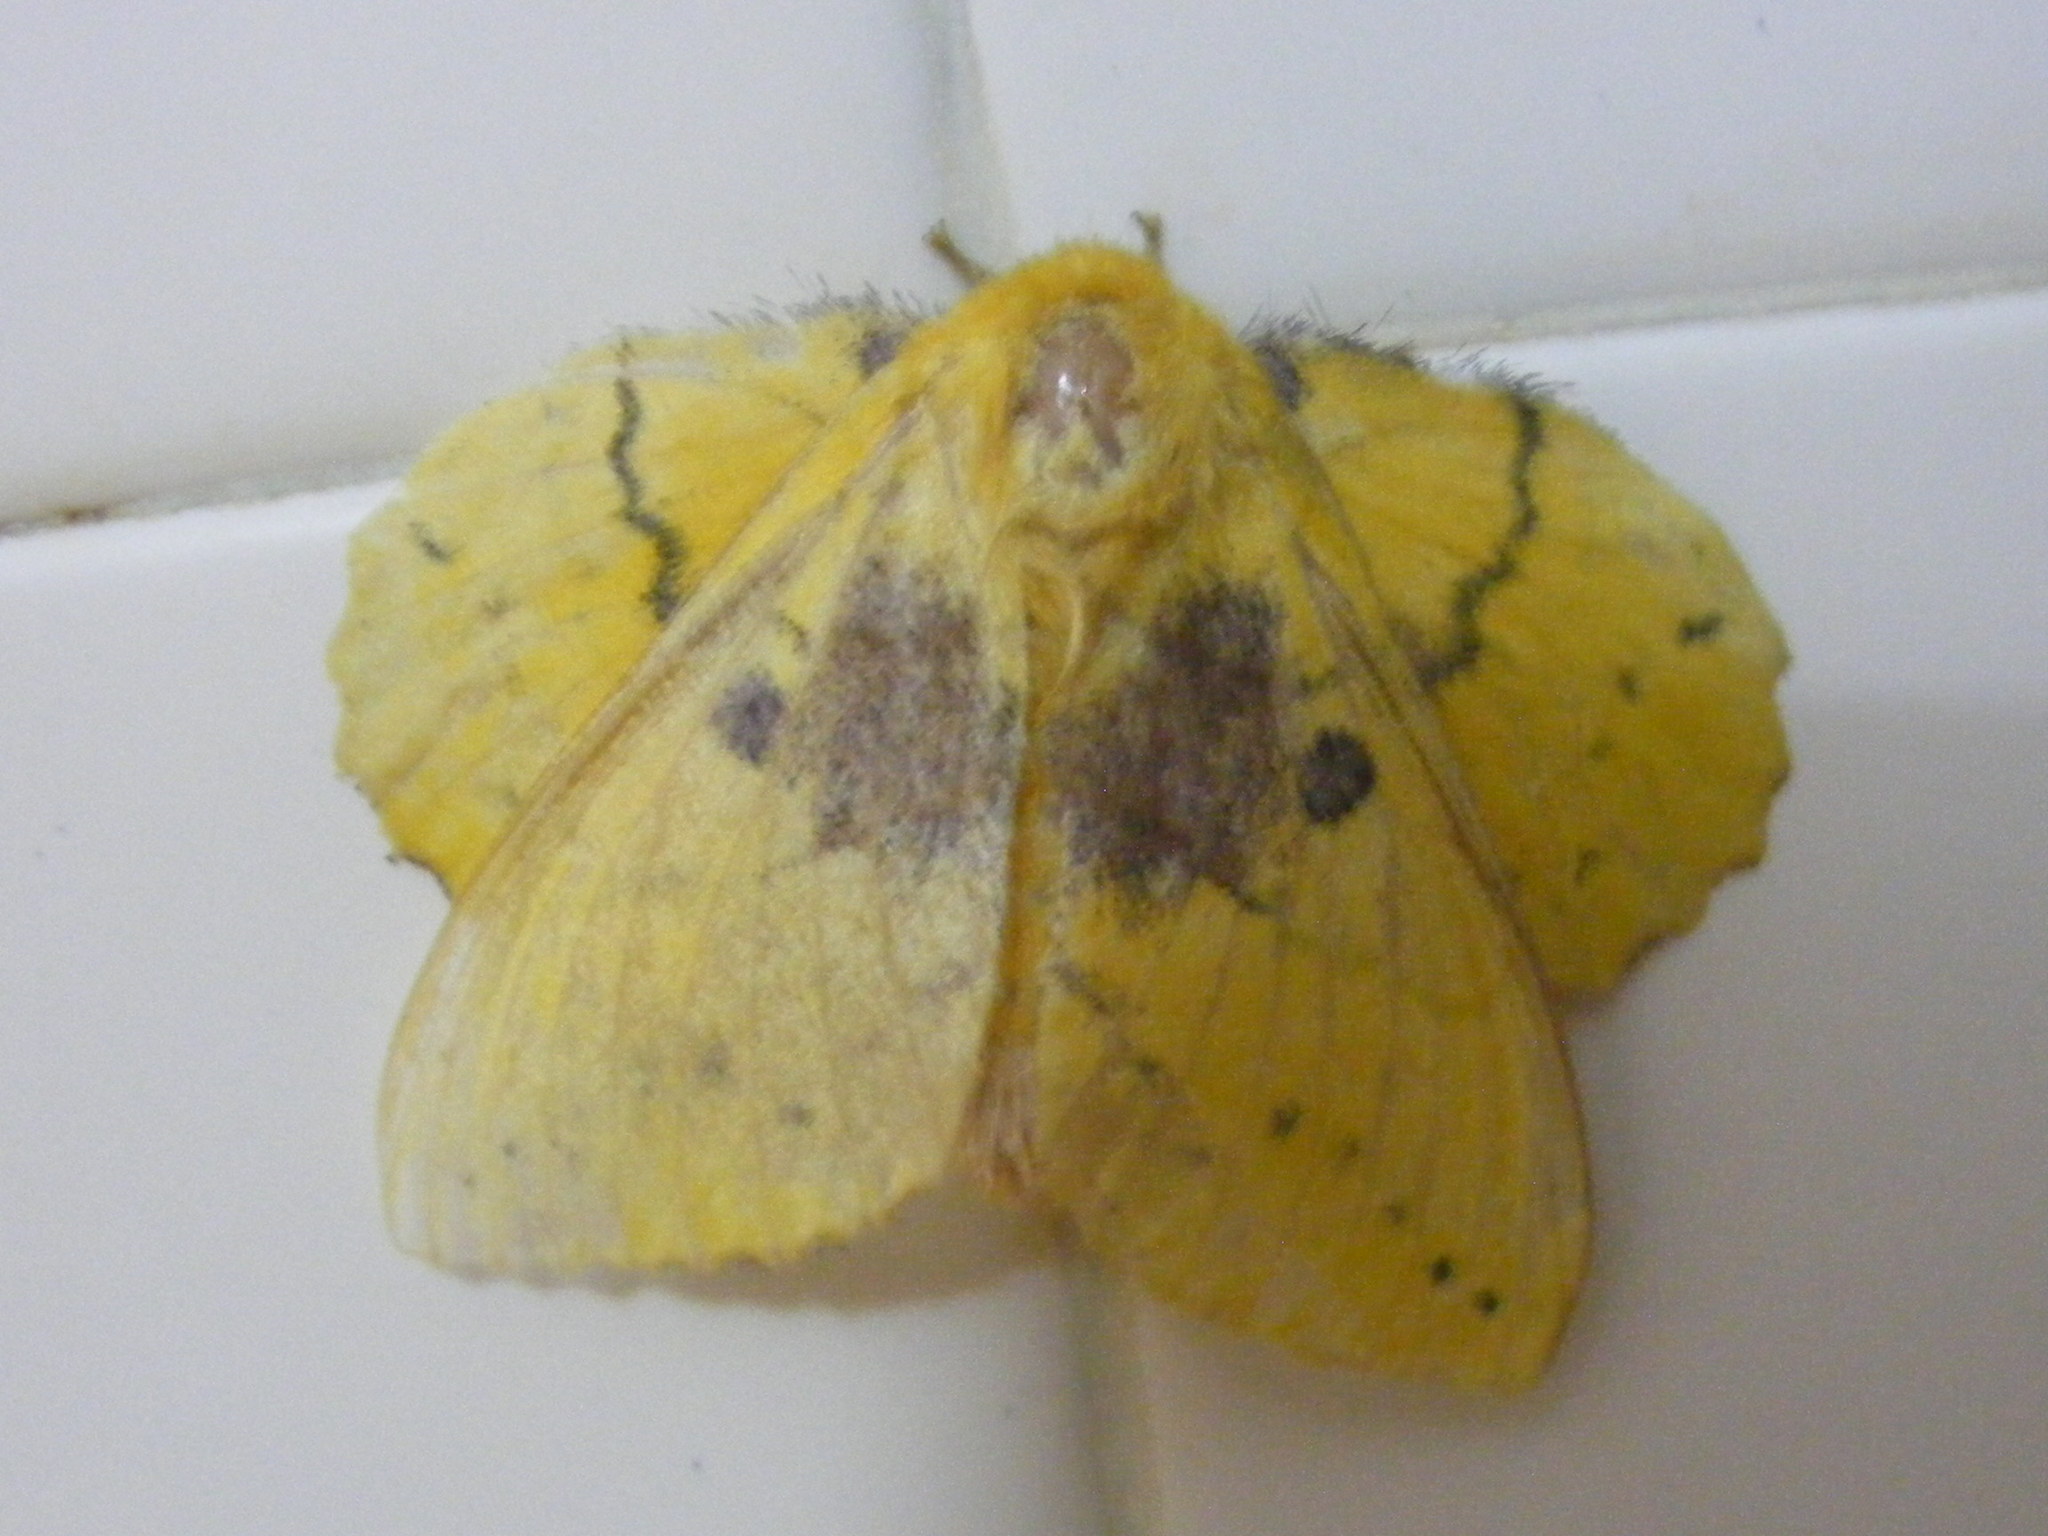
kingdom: Animalia
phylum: Arthropoda
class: Insecta
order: Lepidoptera
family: Lasiocampidae
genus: Trabala
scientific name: Trabala vishnou
